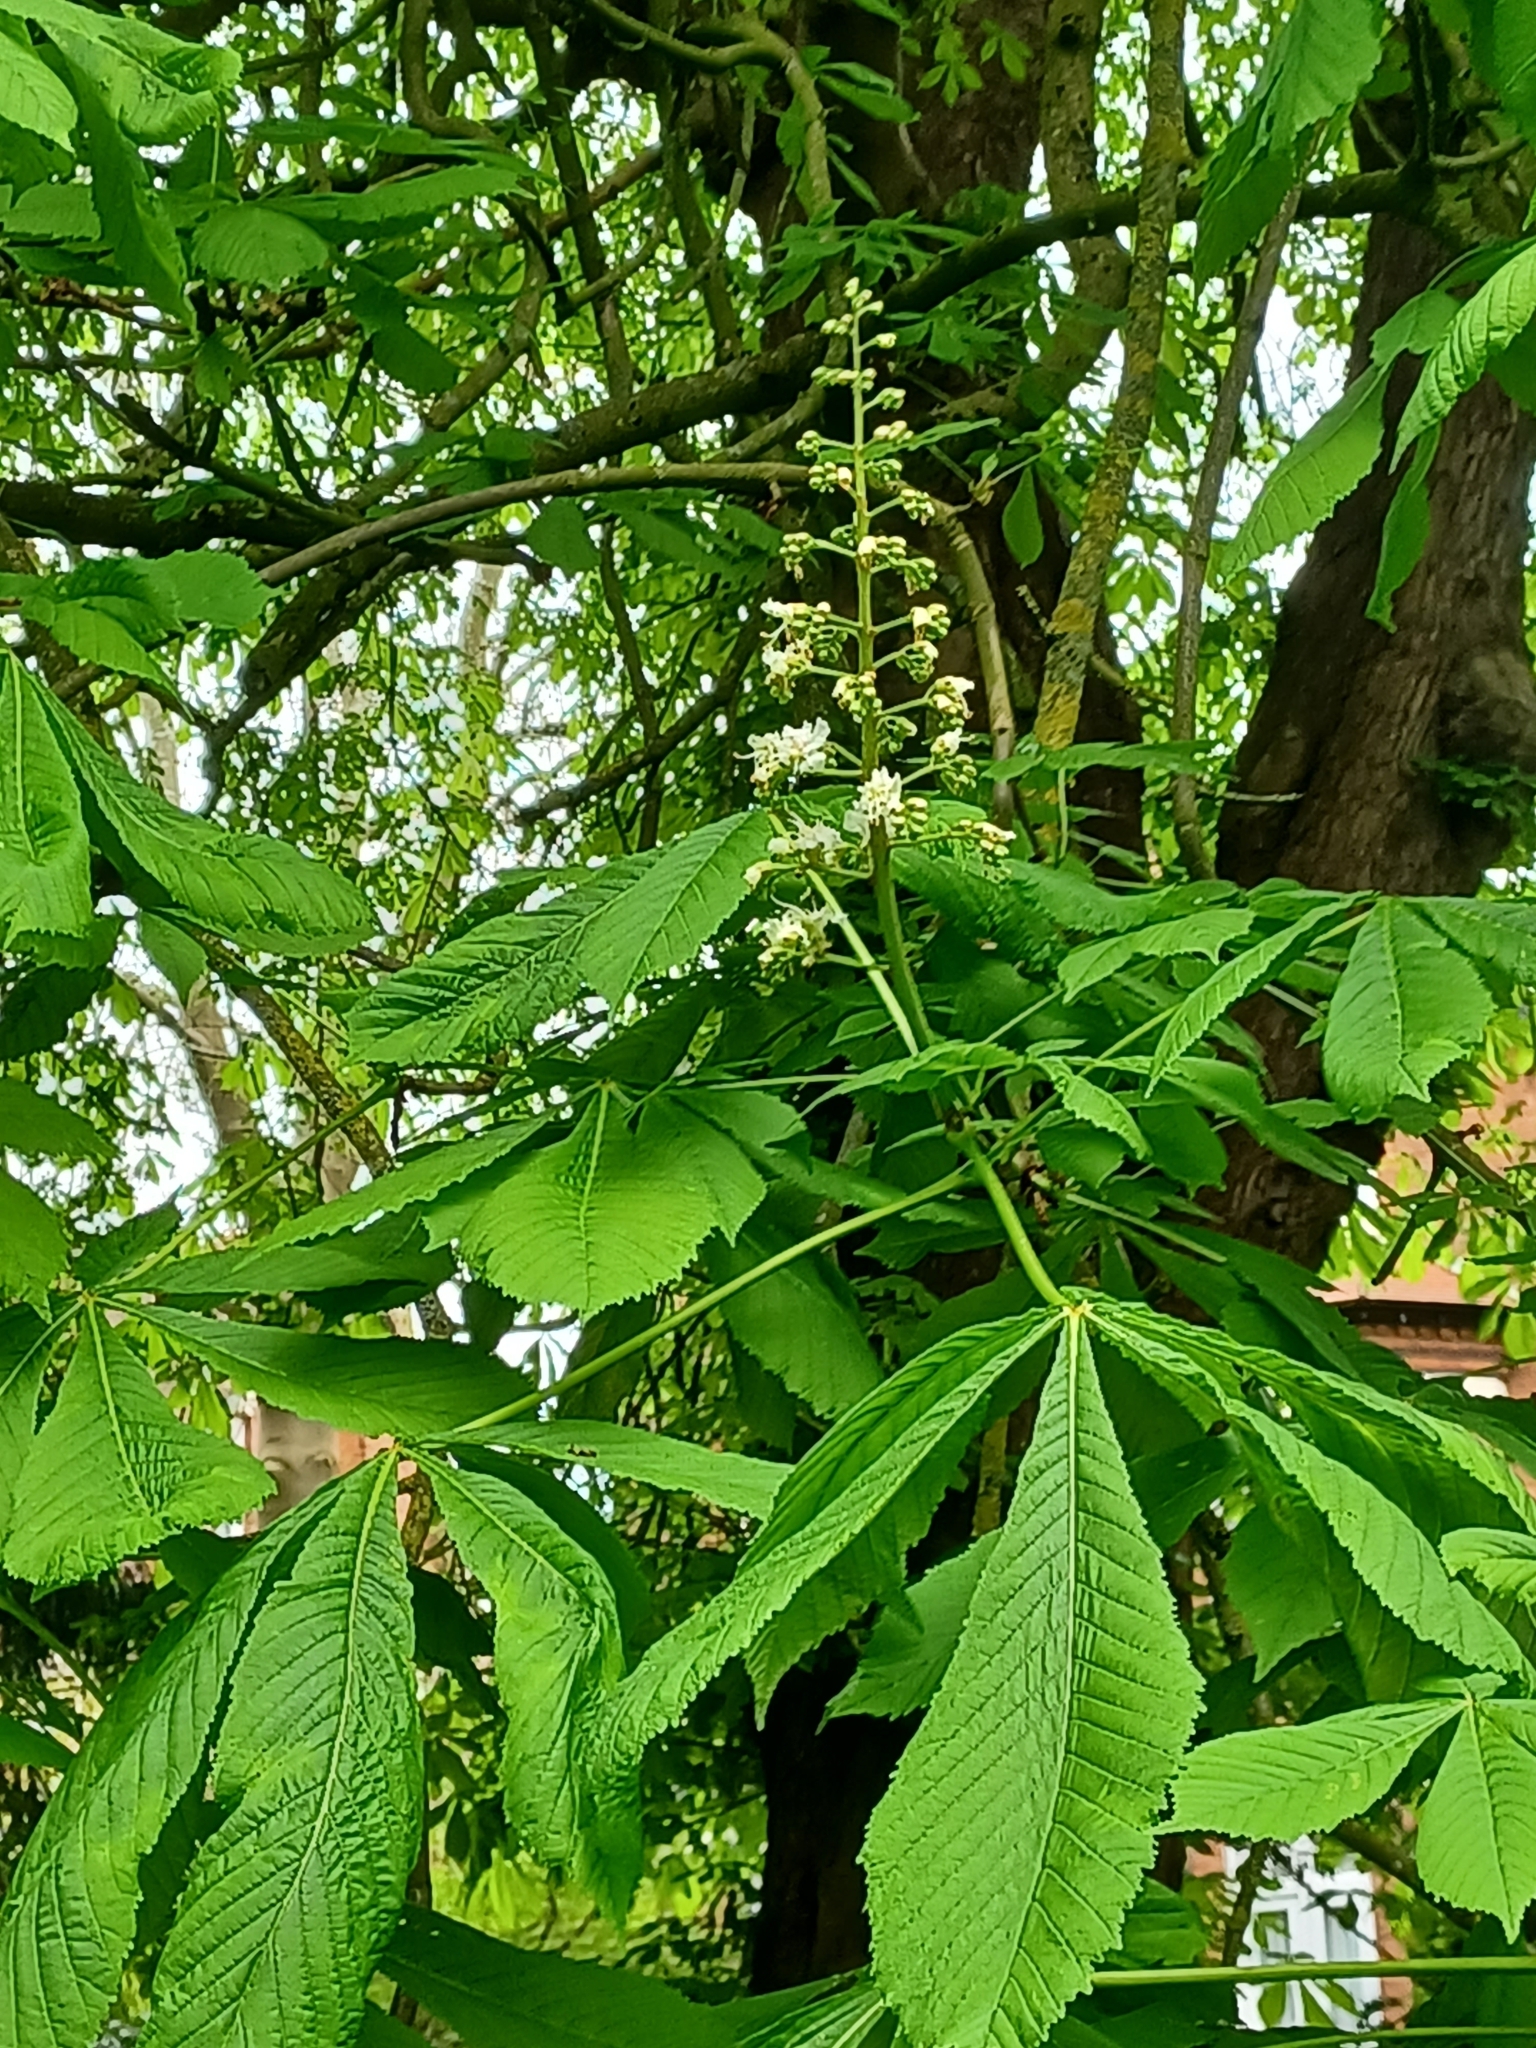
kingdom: Plantae
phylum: Tracheophyta
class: Magnoliopsida
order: Sapindales
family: Sapindaceae
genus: Aesculus
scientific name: Aesculus hippocastanum
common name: Horse-chestnut
